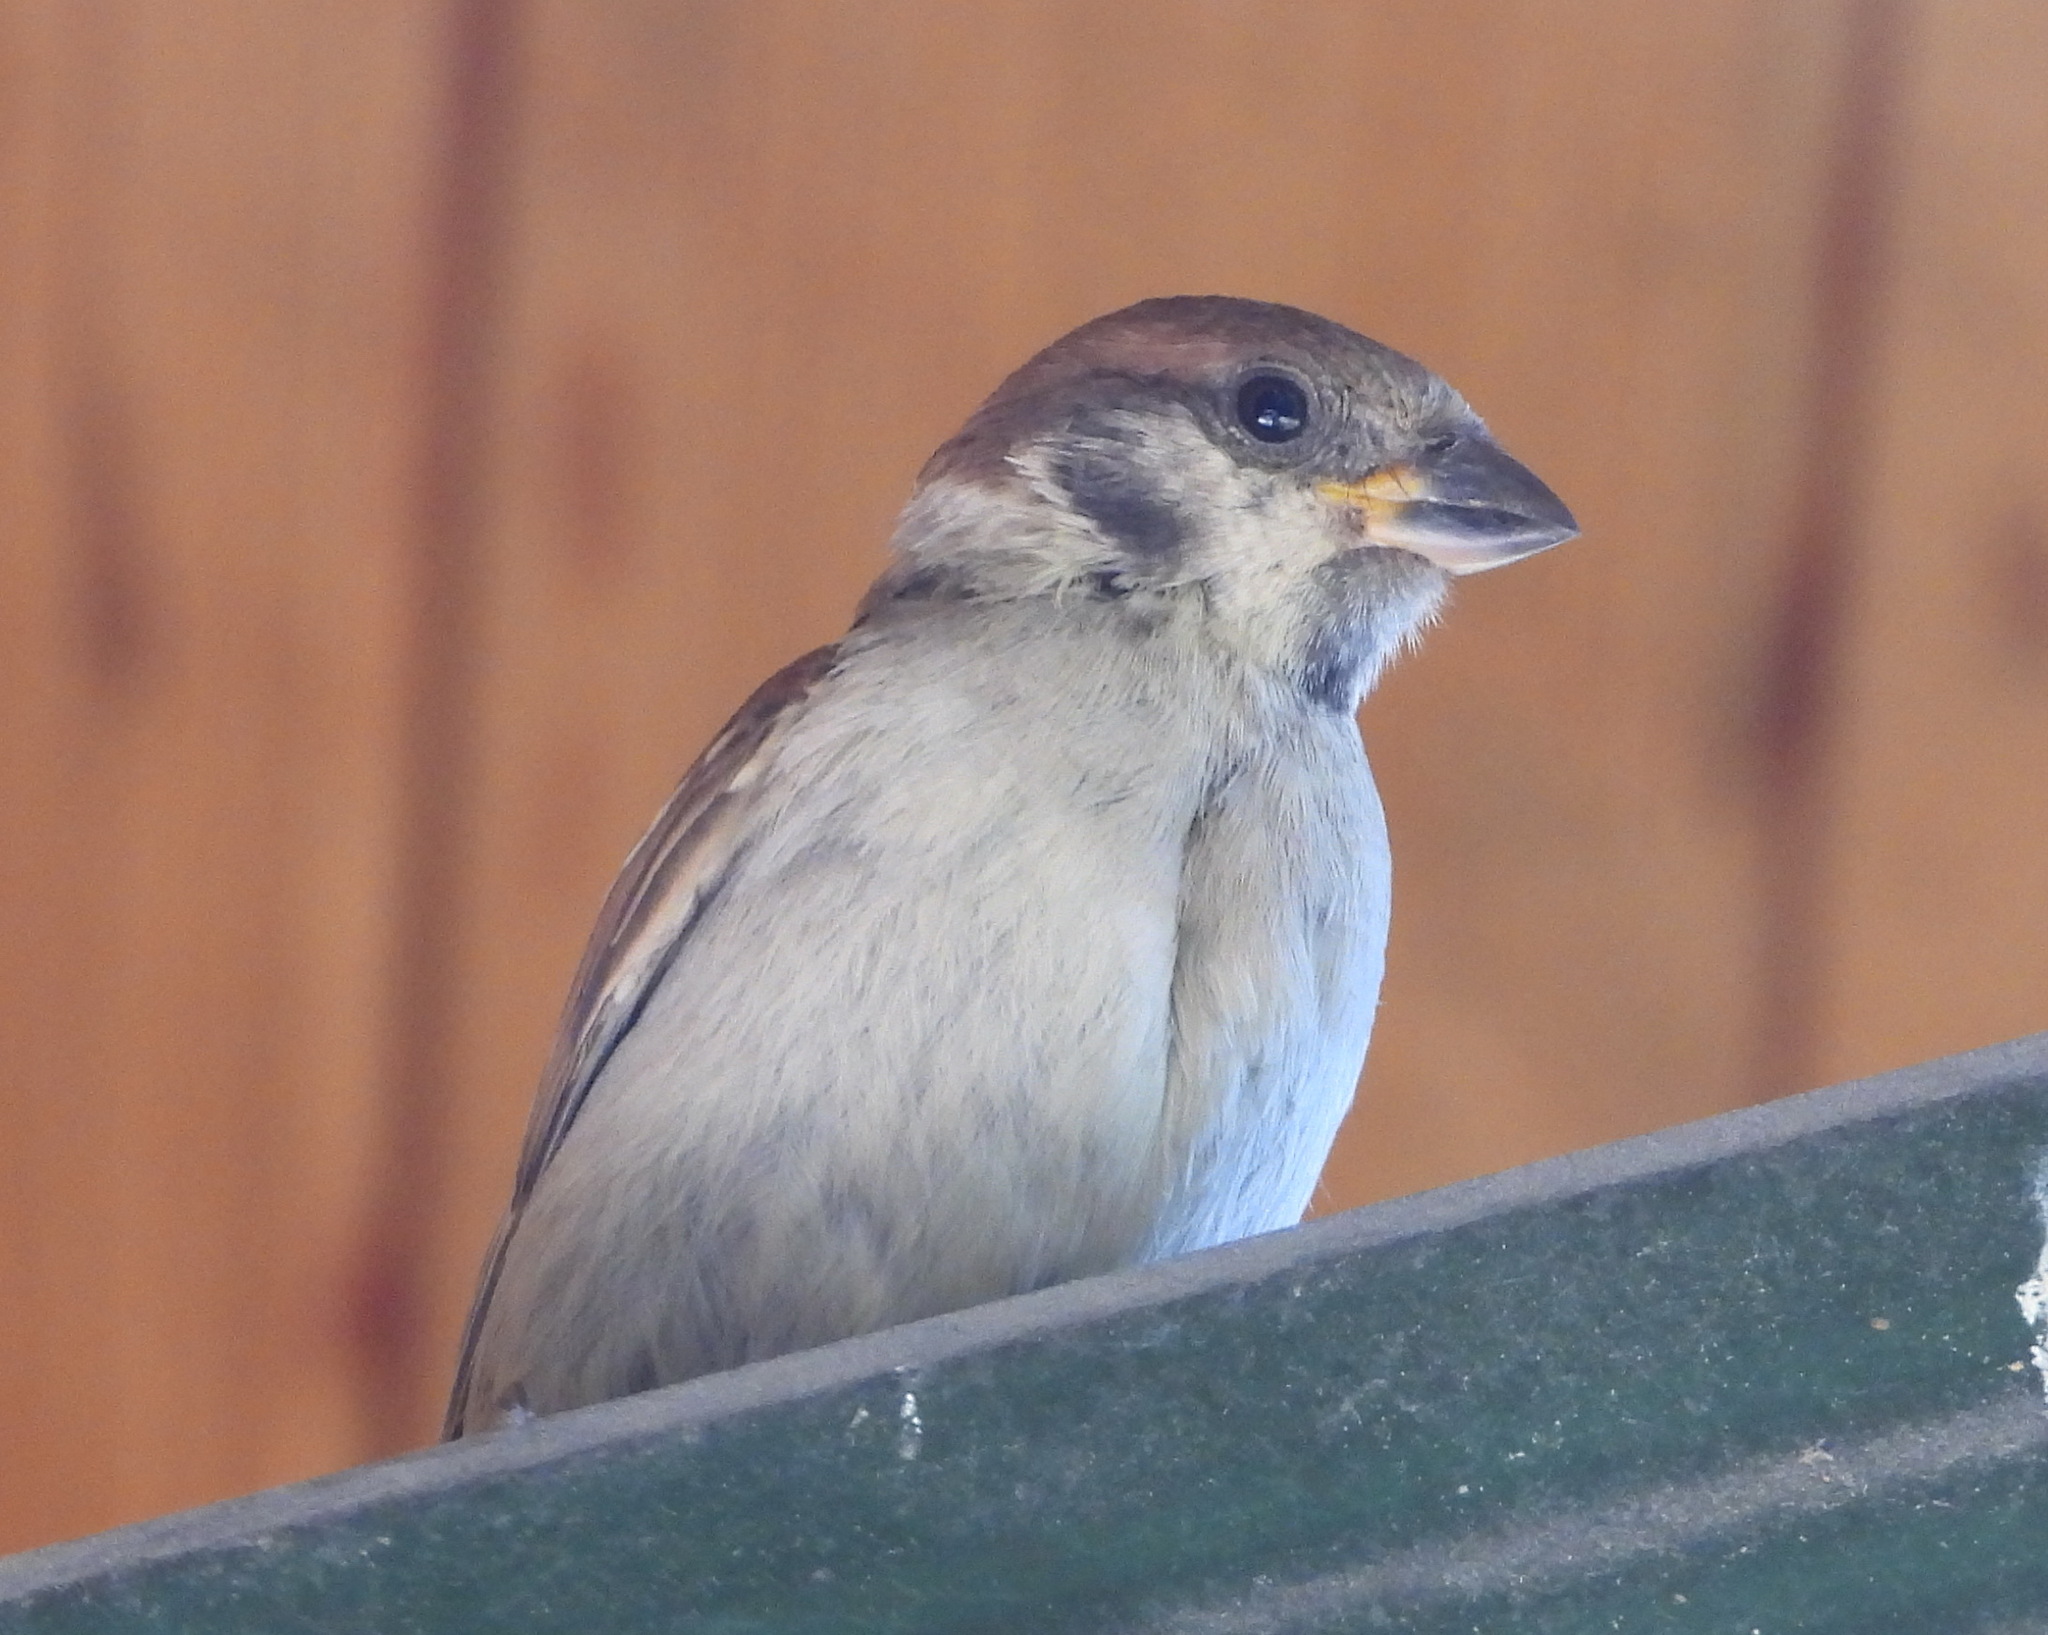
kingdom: Animalia
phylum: Chordata
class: Aves
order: Passeriformes
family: Passeridae
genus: Passer
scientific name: Passer montanus
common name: Eurasian tree sparrow
